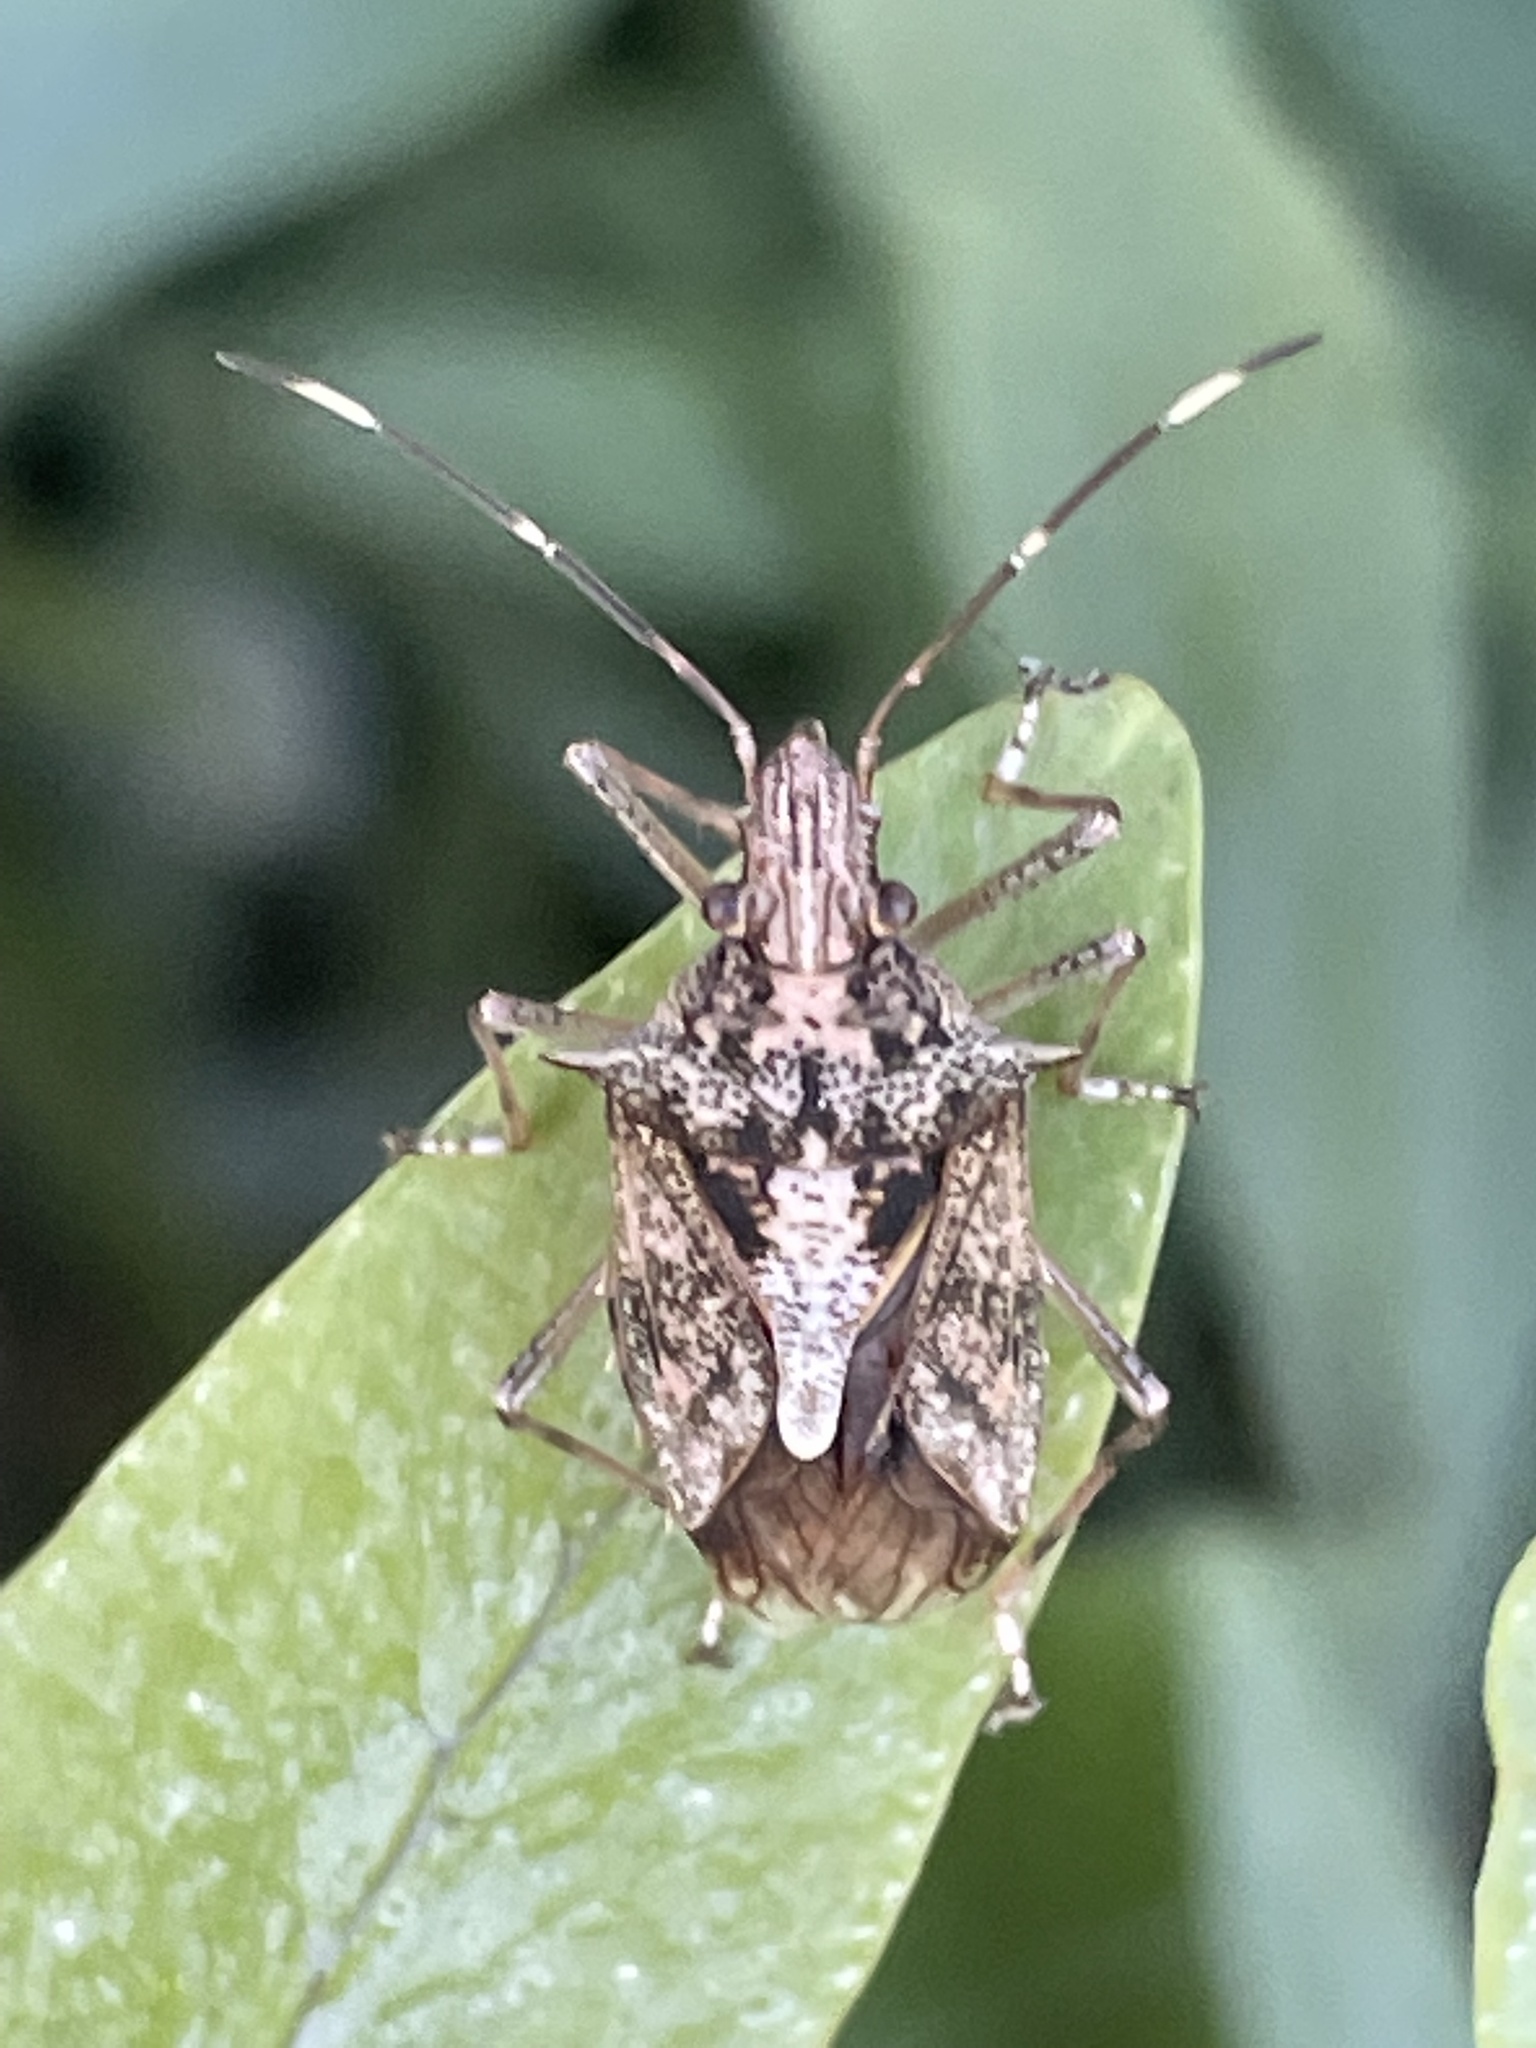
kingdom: Animalia
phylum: Arthropoda
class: Insecta
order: Hemiptera
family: Pentatomidae
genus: Bromocoris
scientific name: Bromocoris
